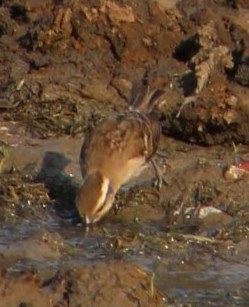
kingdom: Animalia
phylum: Chordata
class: Aves
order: Passeriformes
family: Passeridae
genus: Gymnoris
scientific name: Gymnoris superciliaris
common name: Yellow-throated petronia
